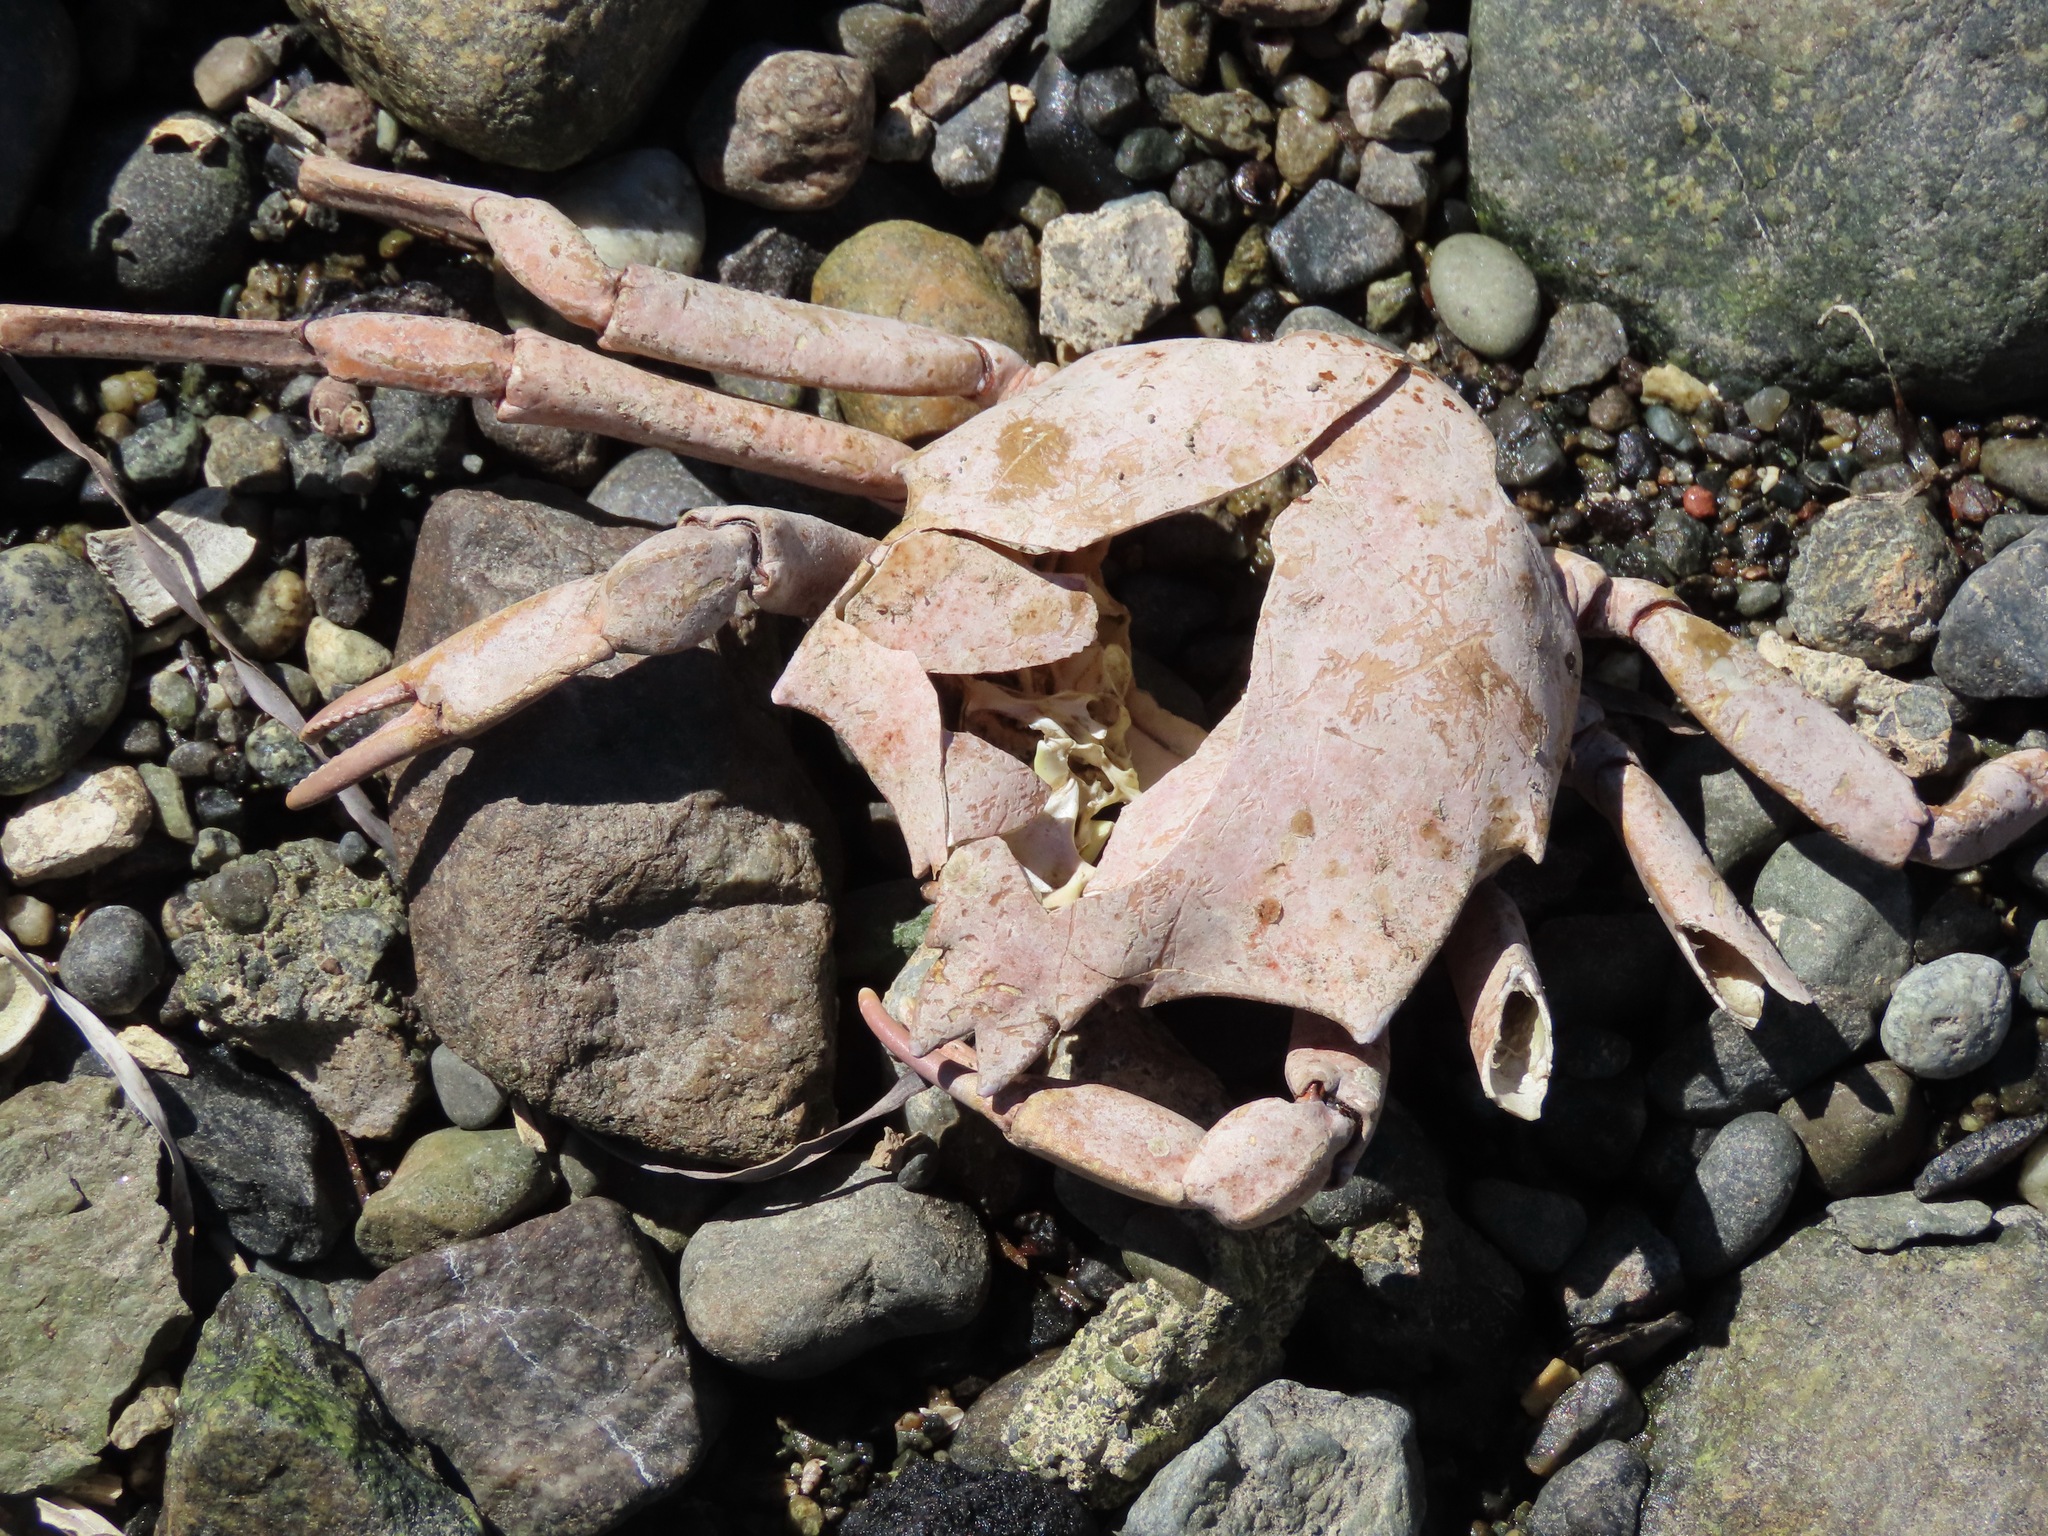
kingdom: Animalia
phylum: Arthropoda
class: Malacostraca
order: Decapoda
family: Epialtidae
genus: Pugettia
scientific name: Pugettia producta
